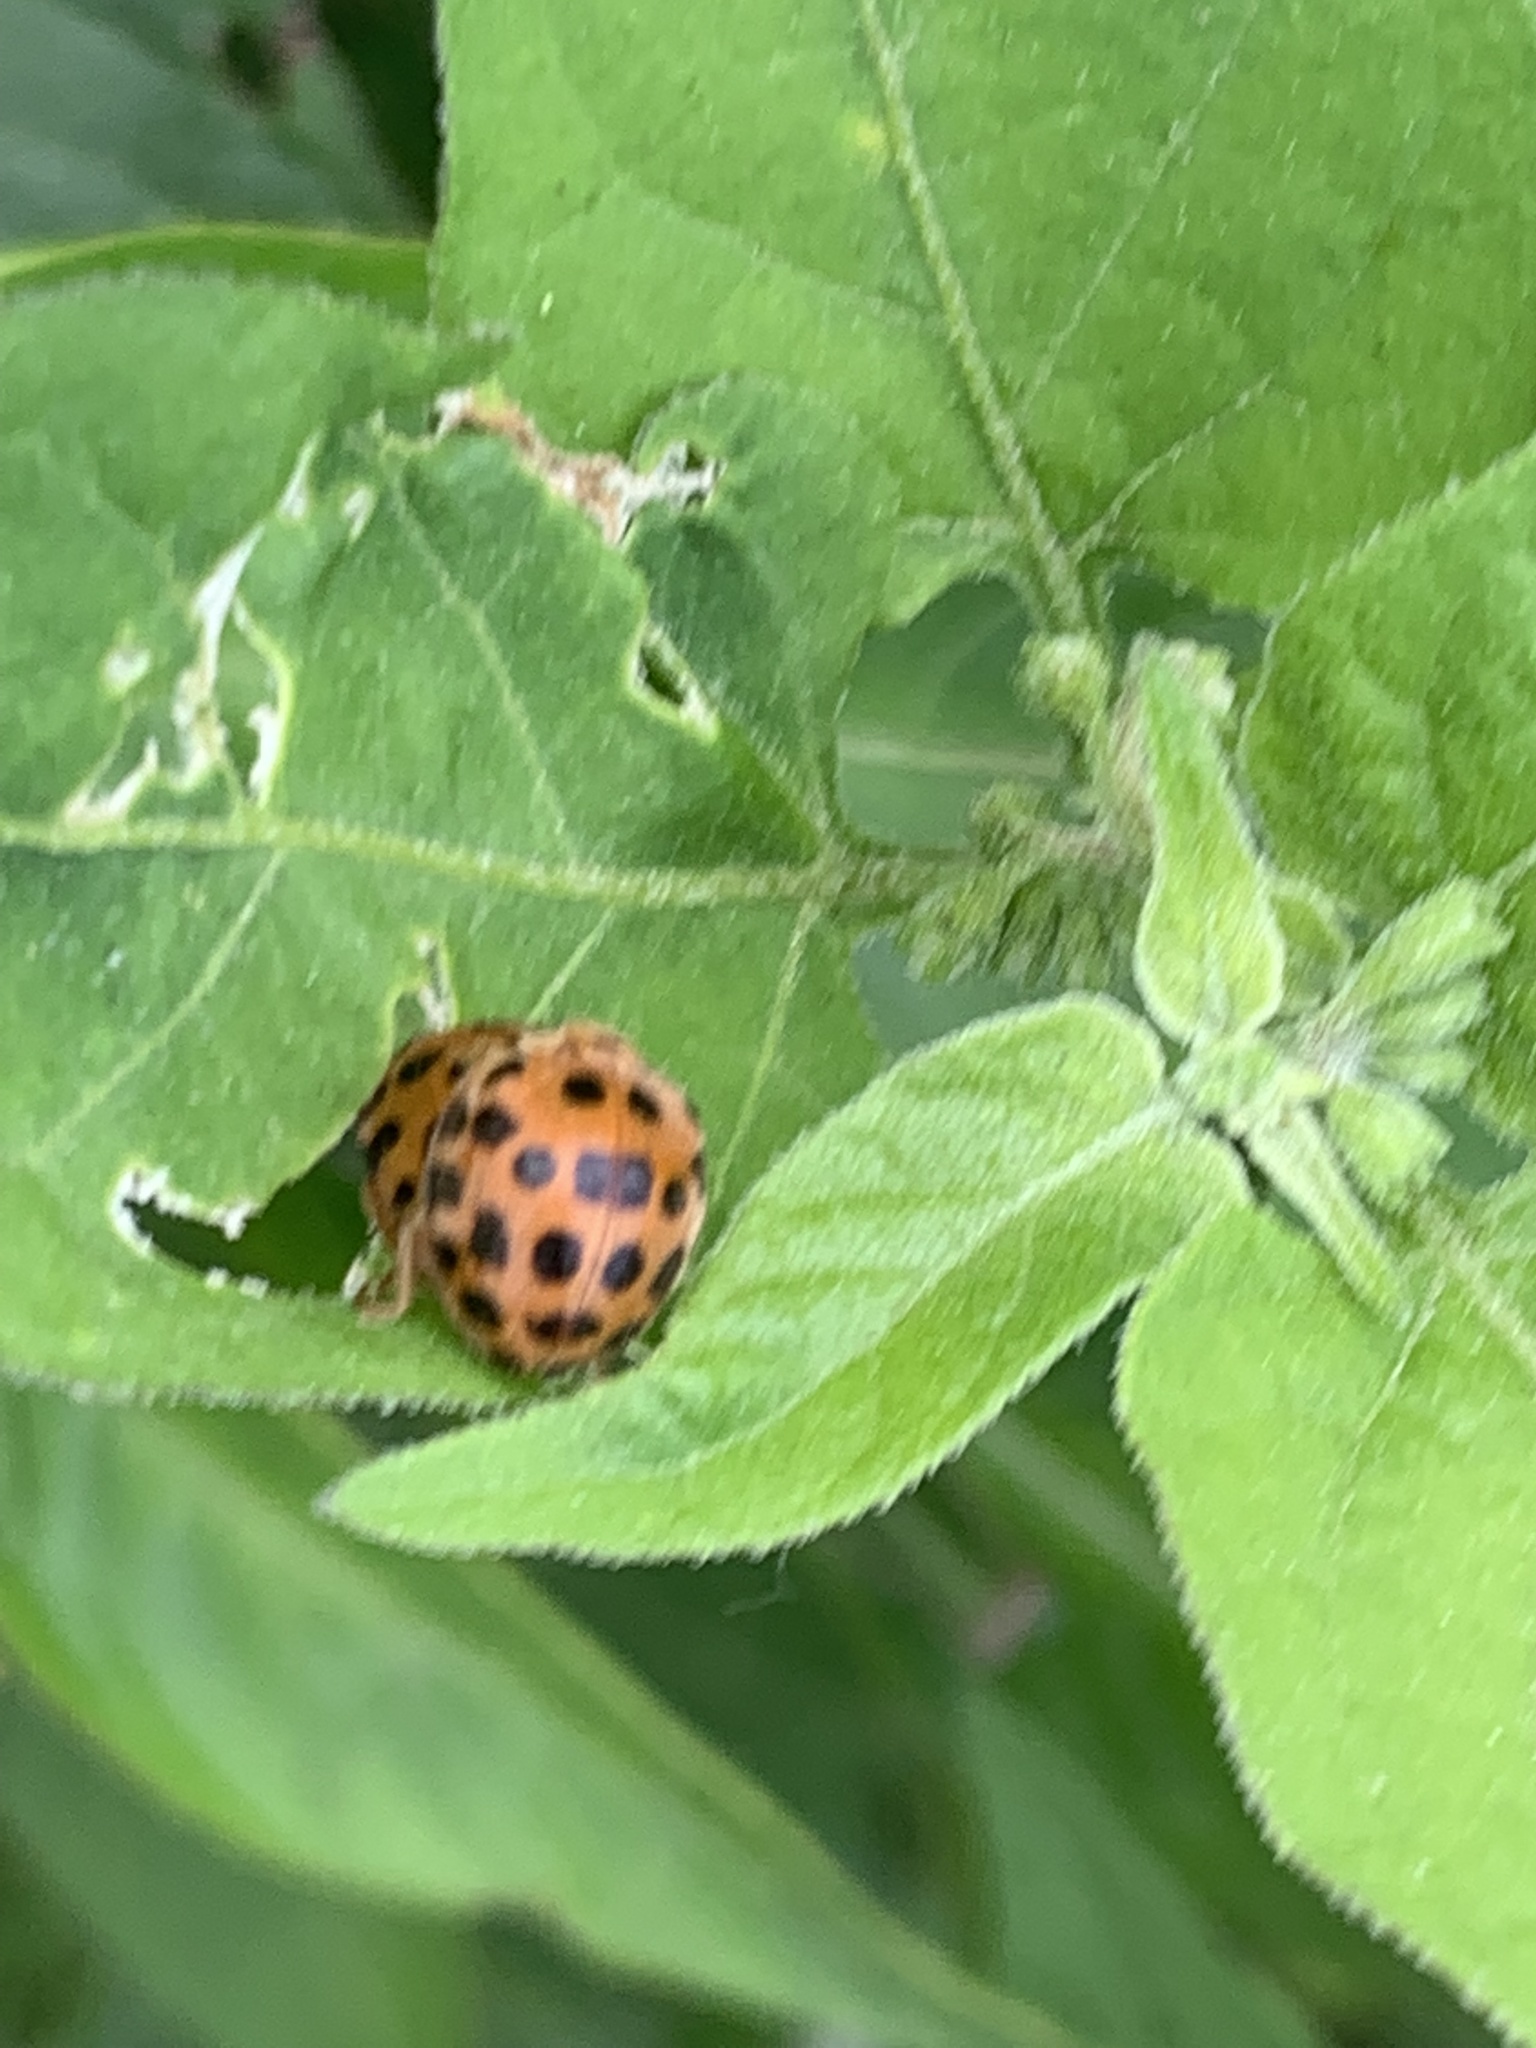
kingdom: Animalia
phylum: Arthropoda
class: Insecta
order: Coleoptera
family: Coccinellidae
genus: Henosepilachna
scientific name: Henosepilachna vigintioctopunctata
